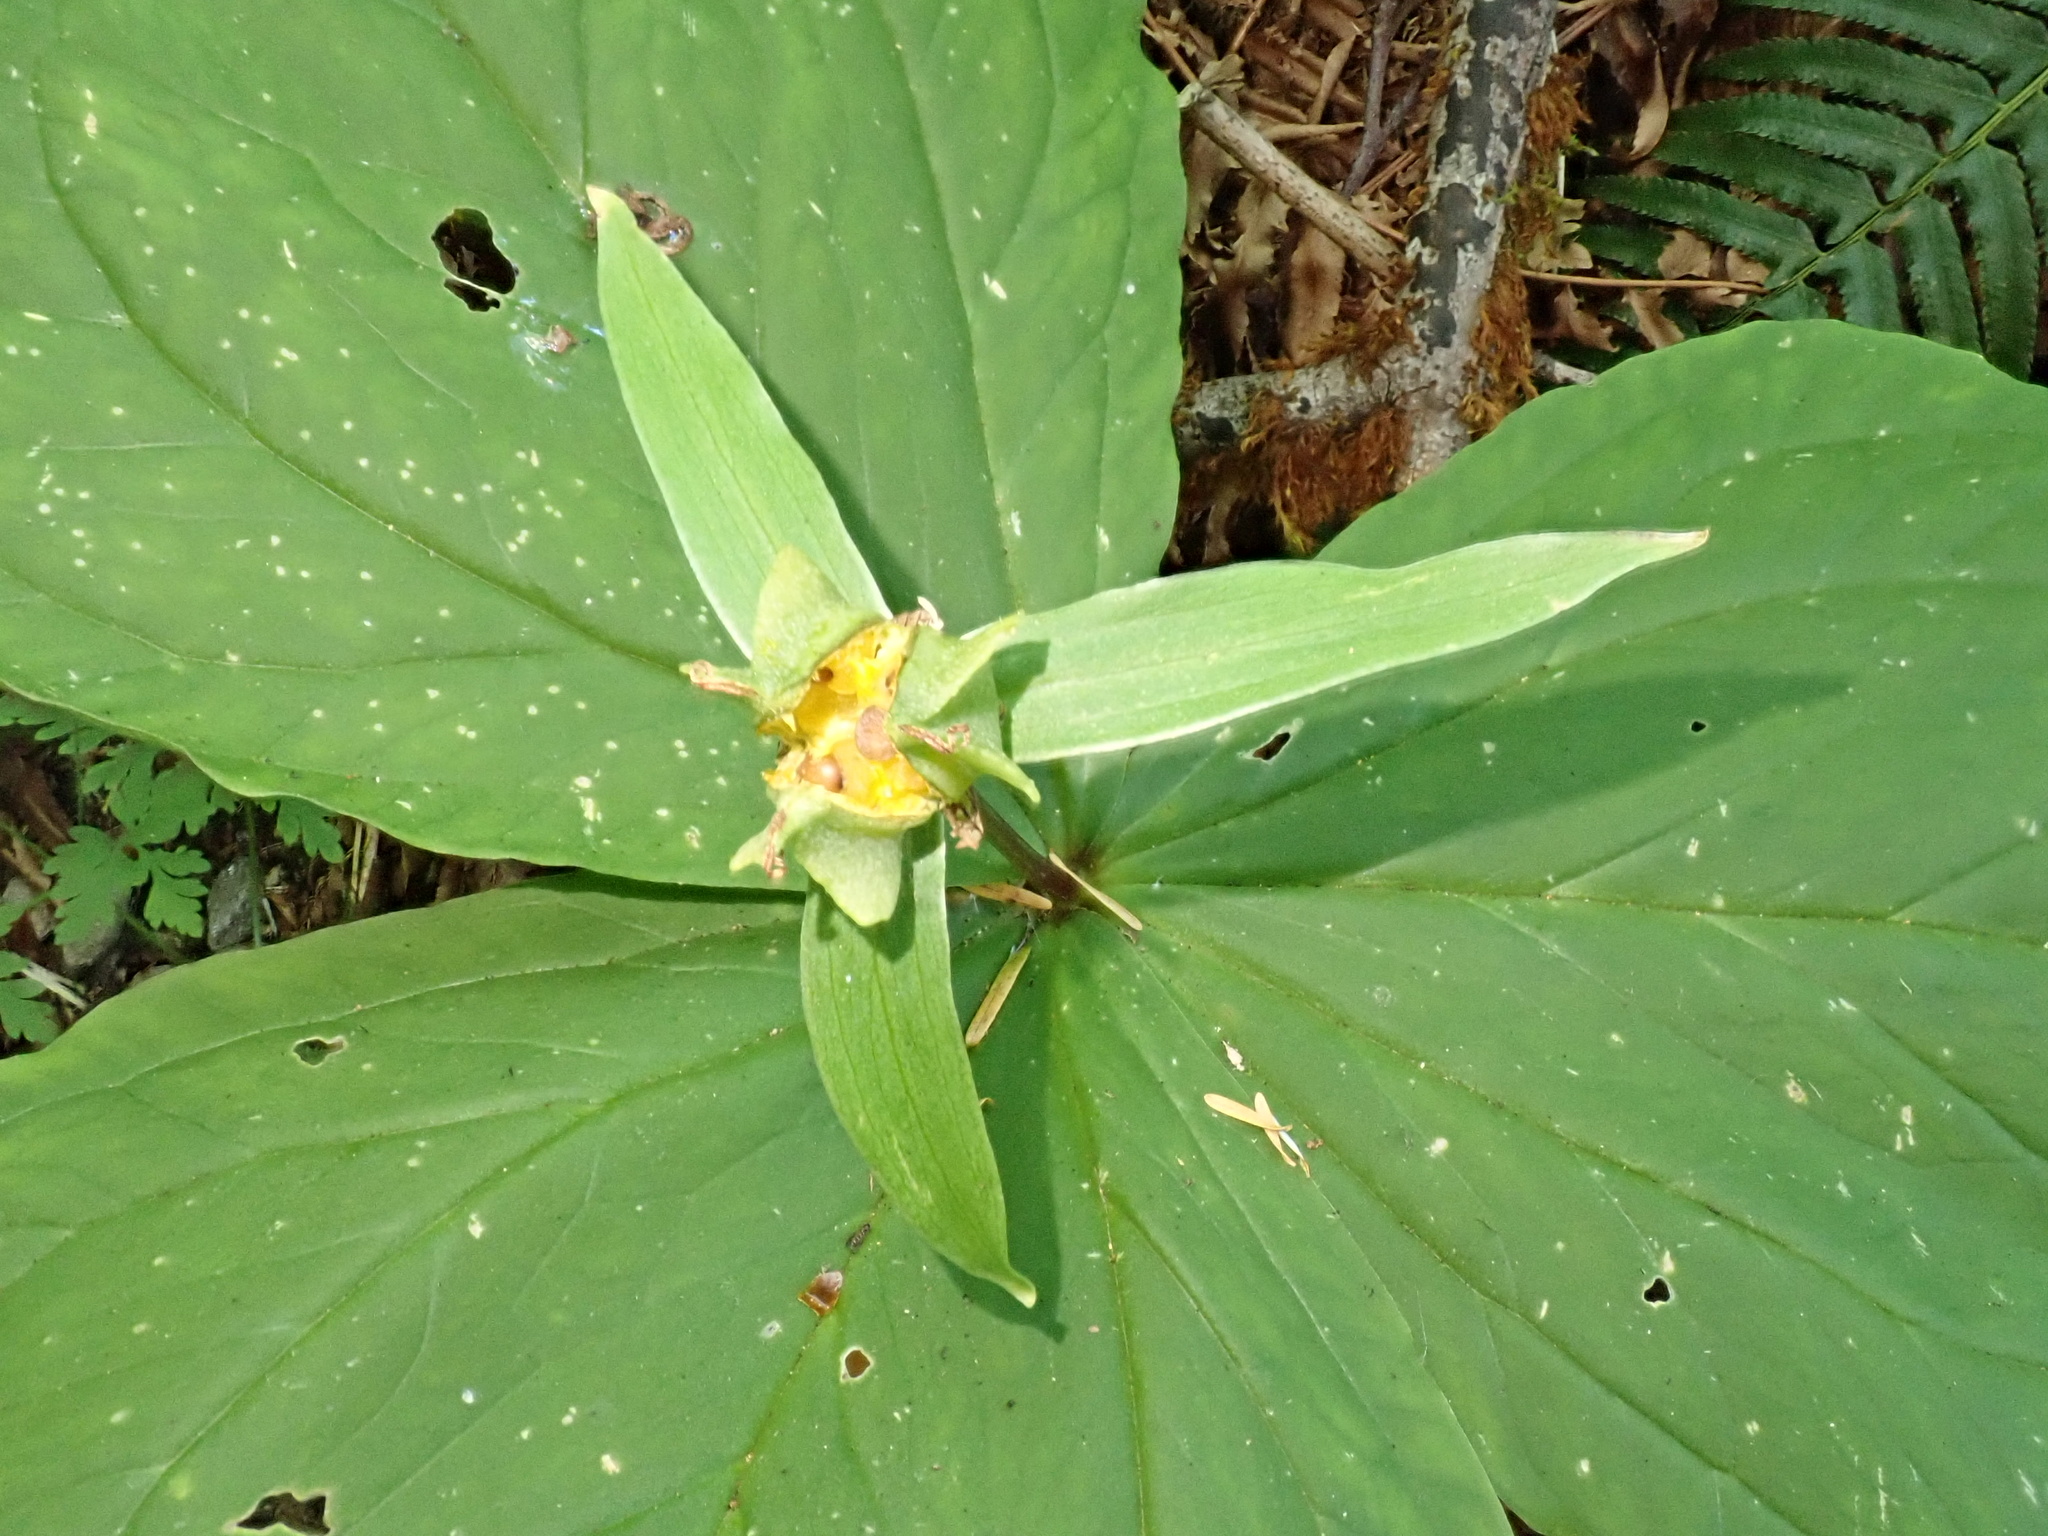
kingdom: Plantae
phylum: Tracheophyta
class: Liliopsida
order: Liliales
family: Melanthiaceae
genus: Trillium
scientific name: Trillium ovatum
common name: Pacific trillium
